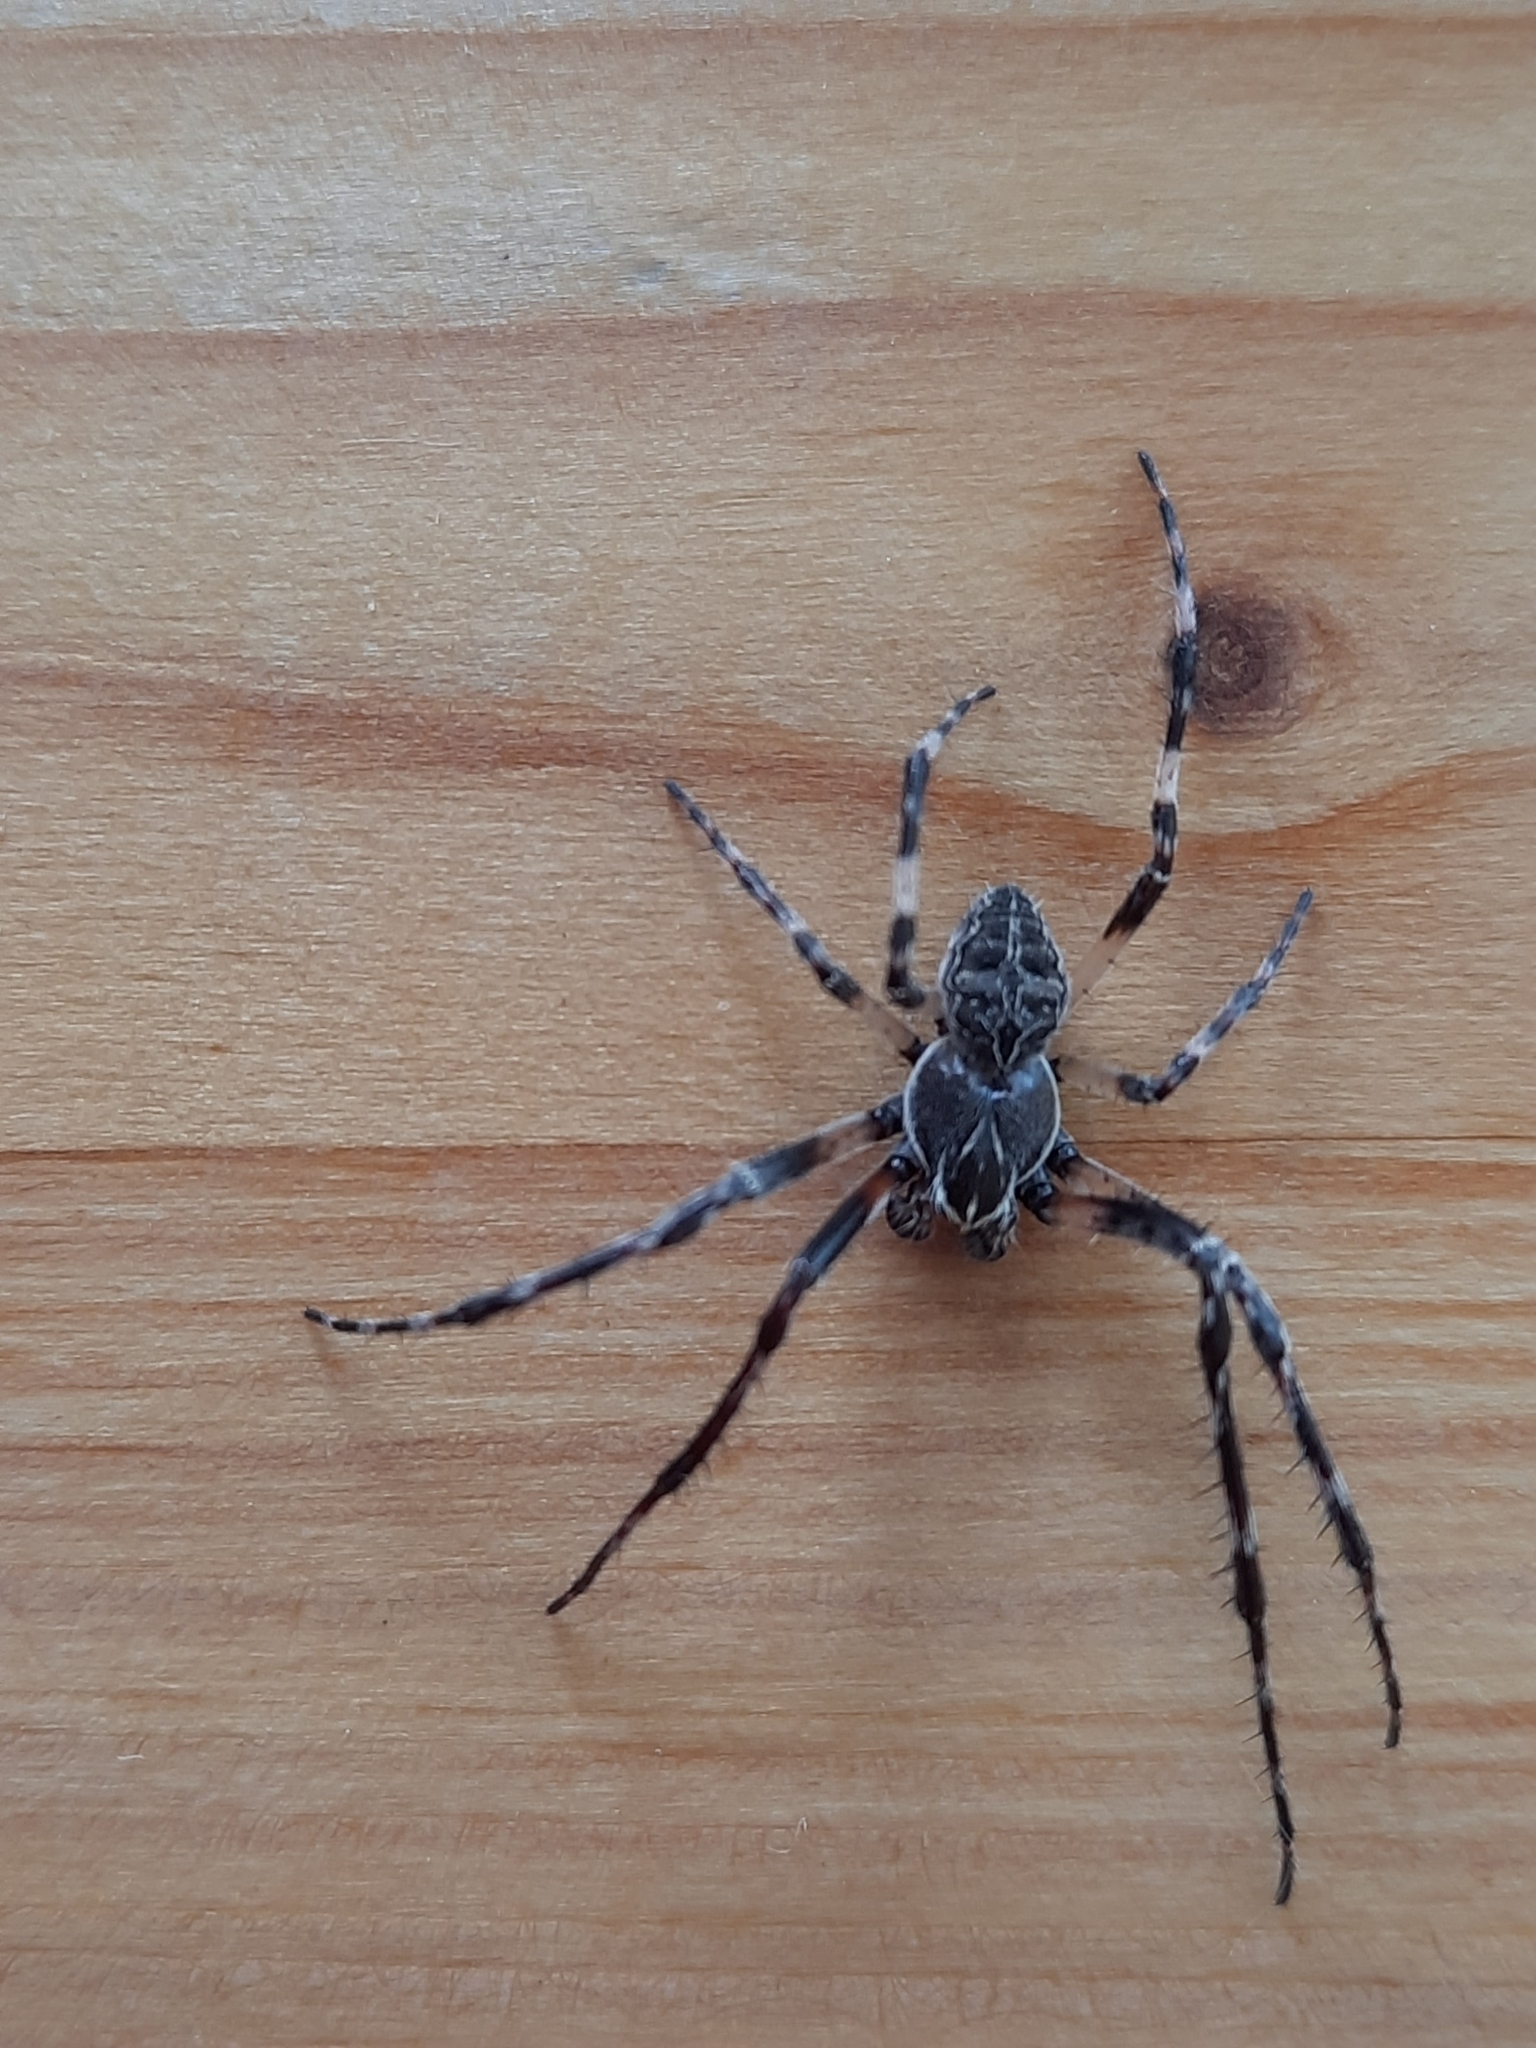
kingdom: Animalia
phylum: Arthropoda
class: Arachnida
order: Araneae
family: Araneidae
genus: Larinioides
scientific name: Larinioides sclopetarius
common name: Bridge orbweaver
